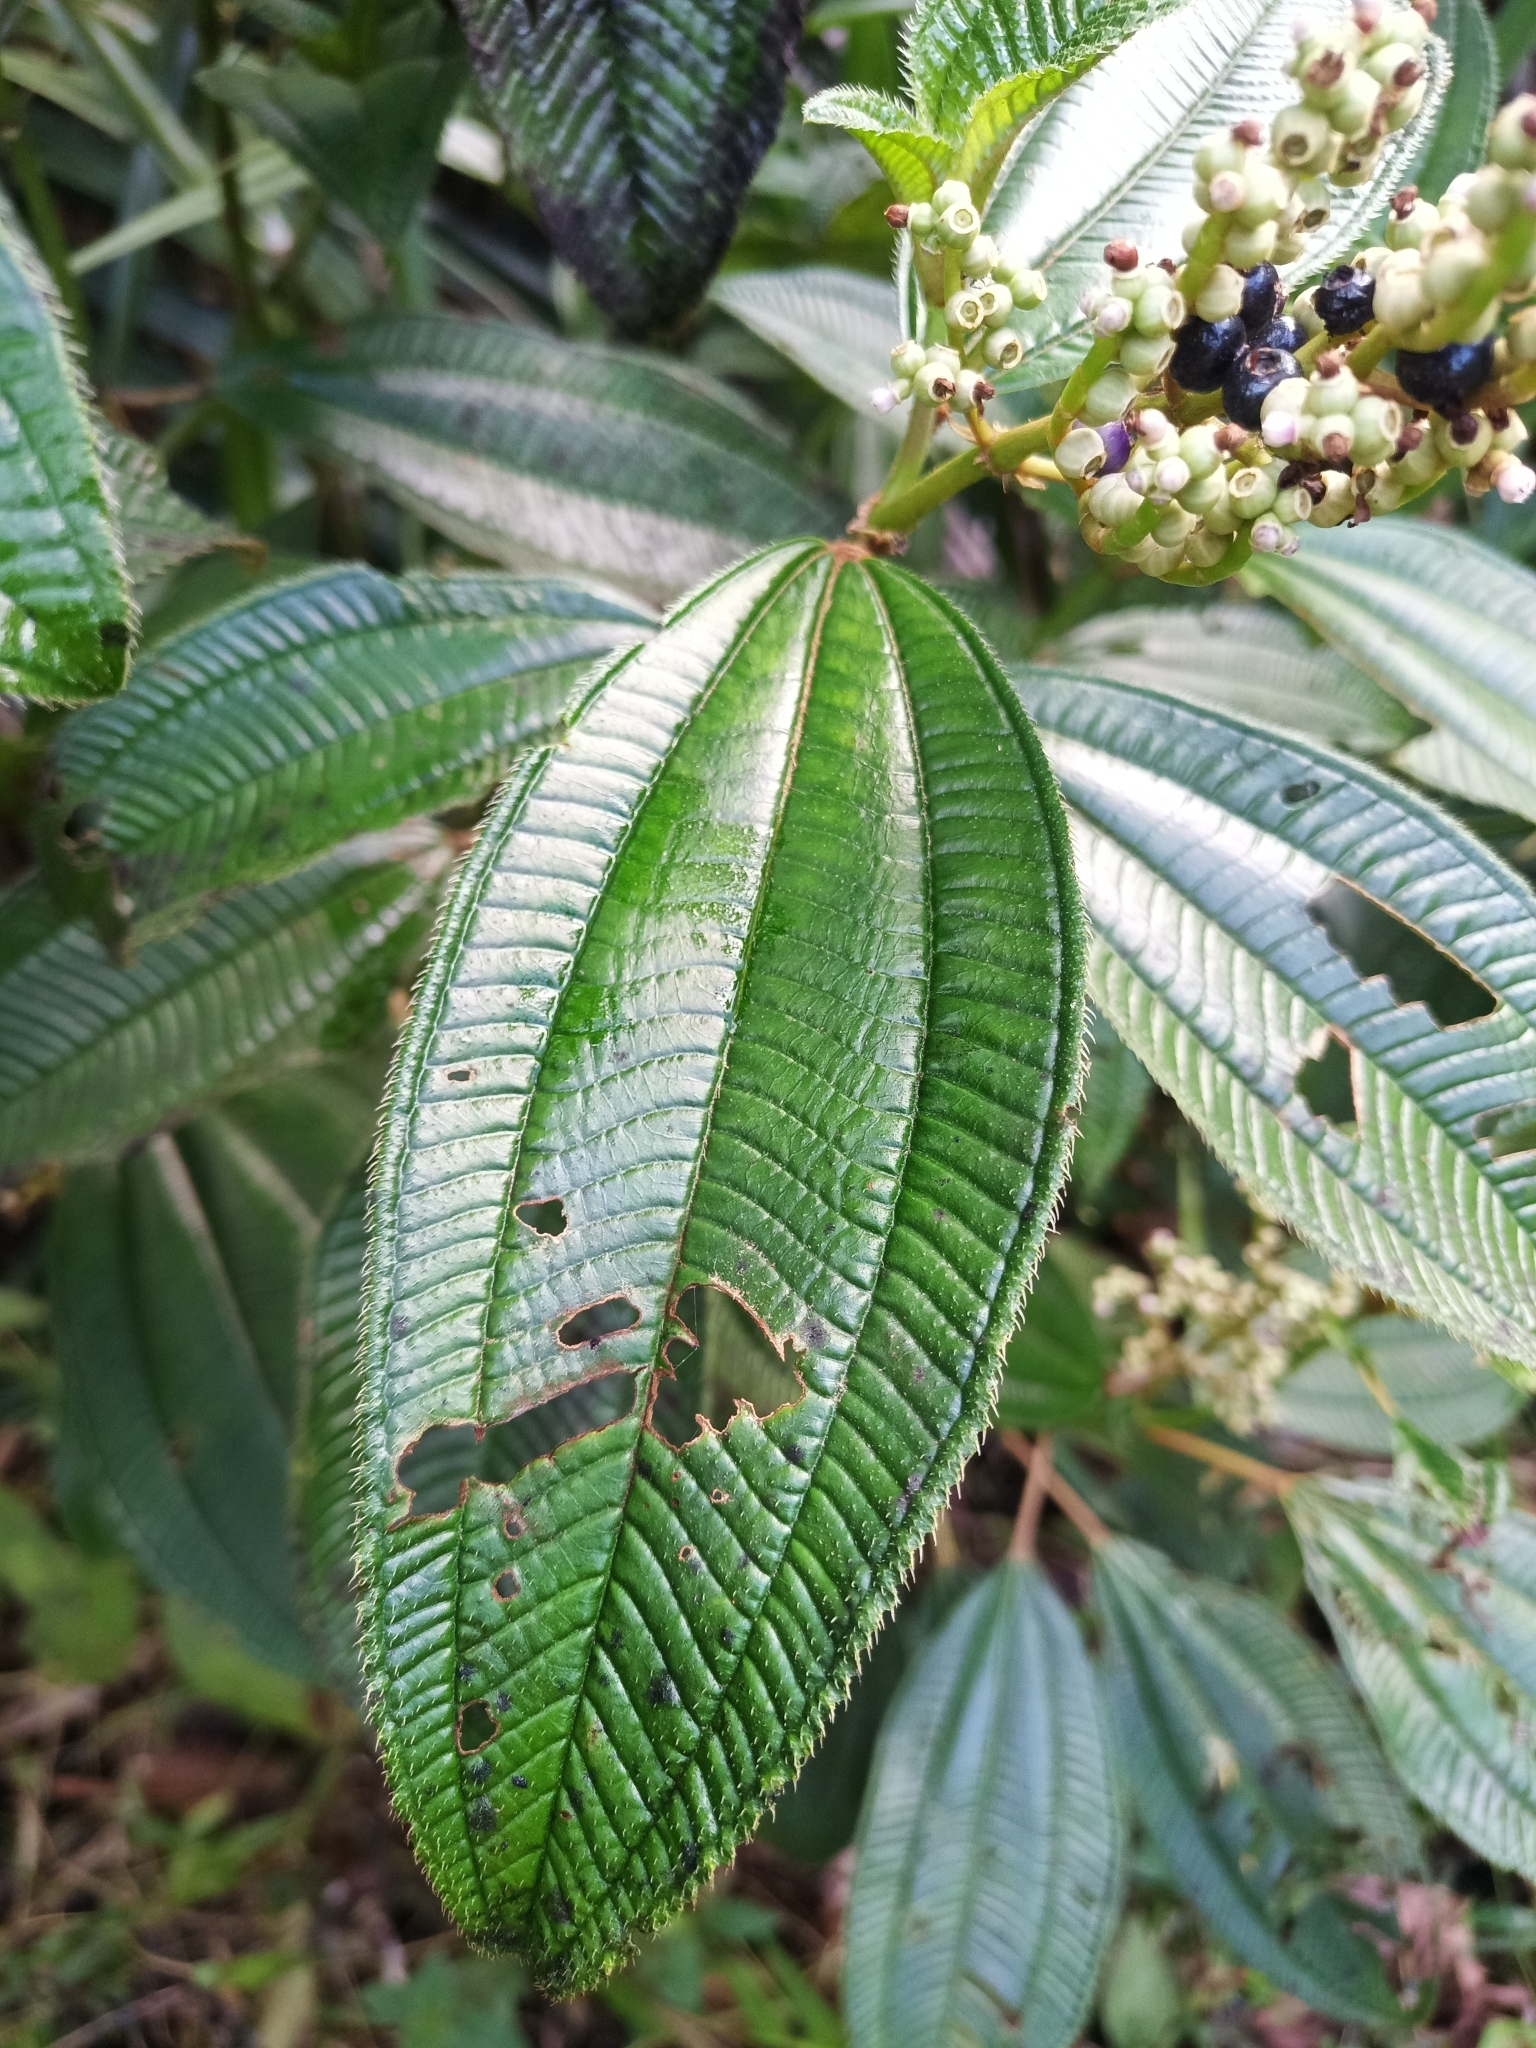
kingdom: Plantae
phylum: Tracheophyta
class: Magnoliopsida
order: Myrtales
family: Melastomataceae
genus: Miconia
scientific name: Miconia racemosa
